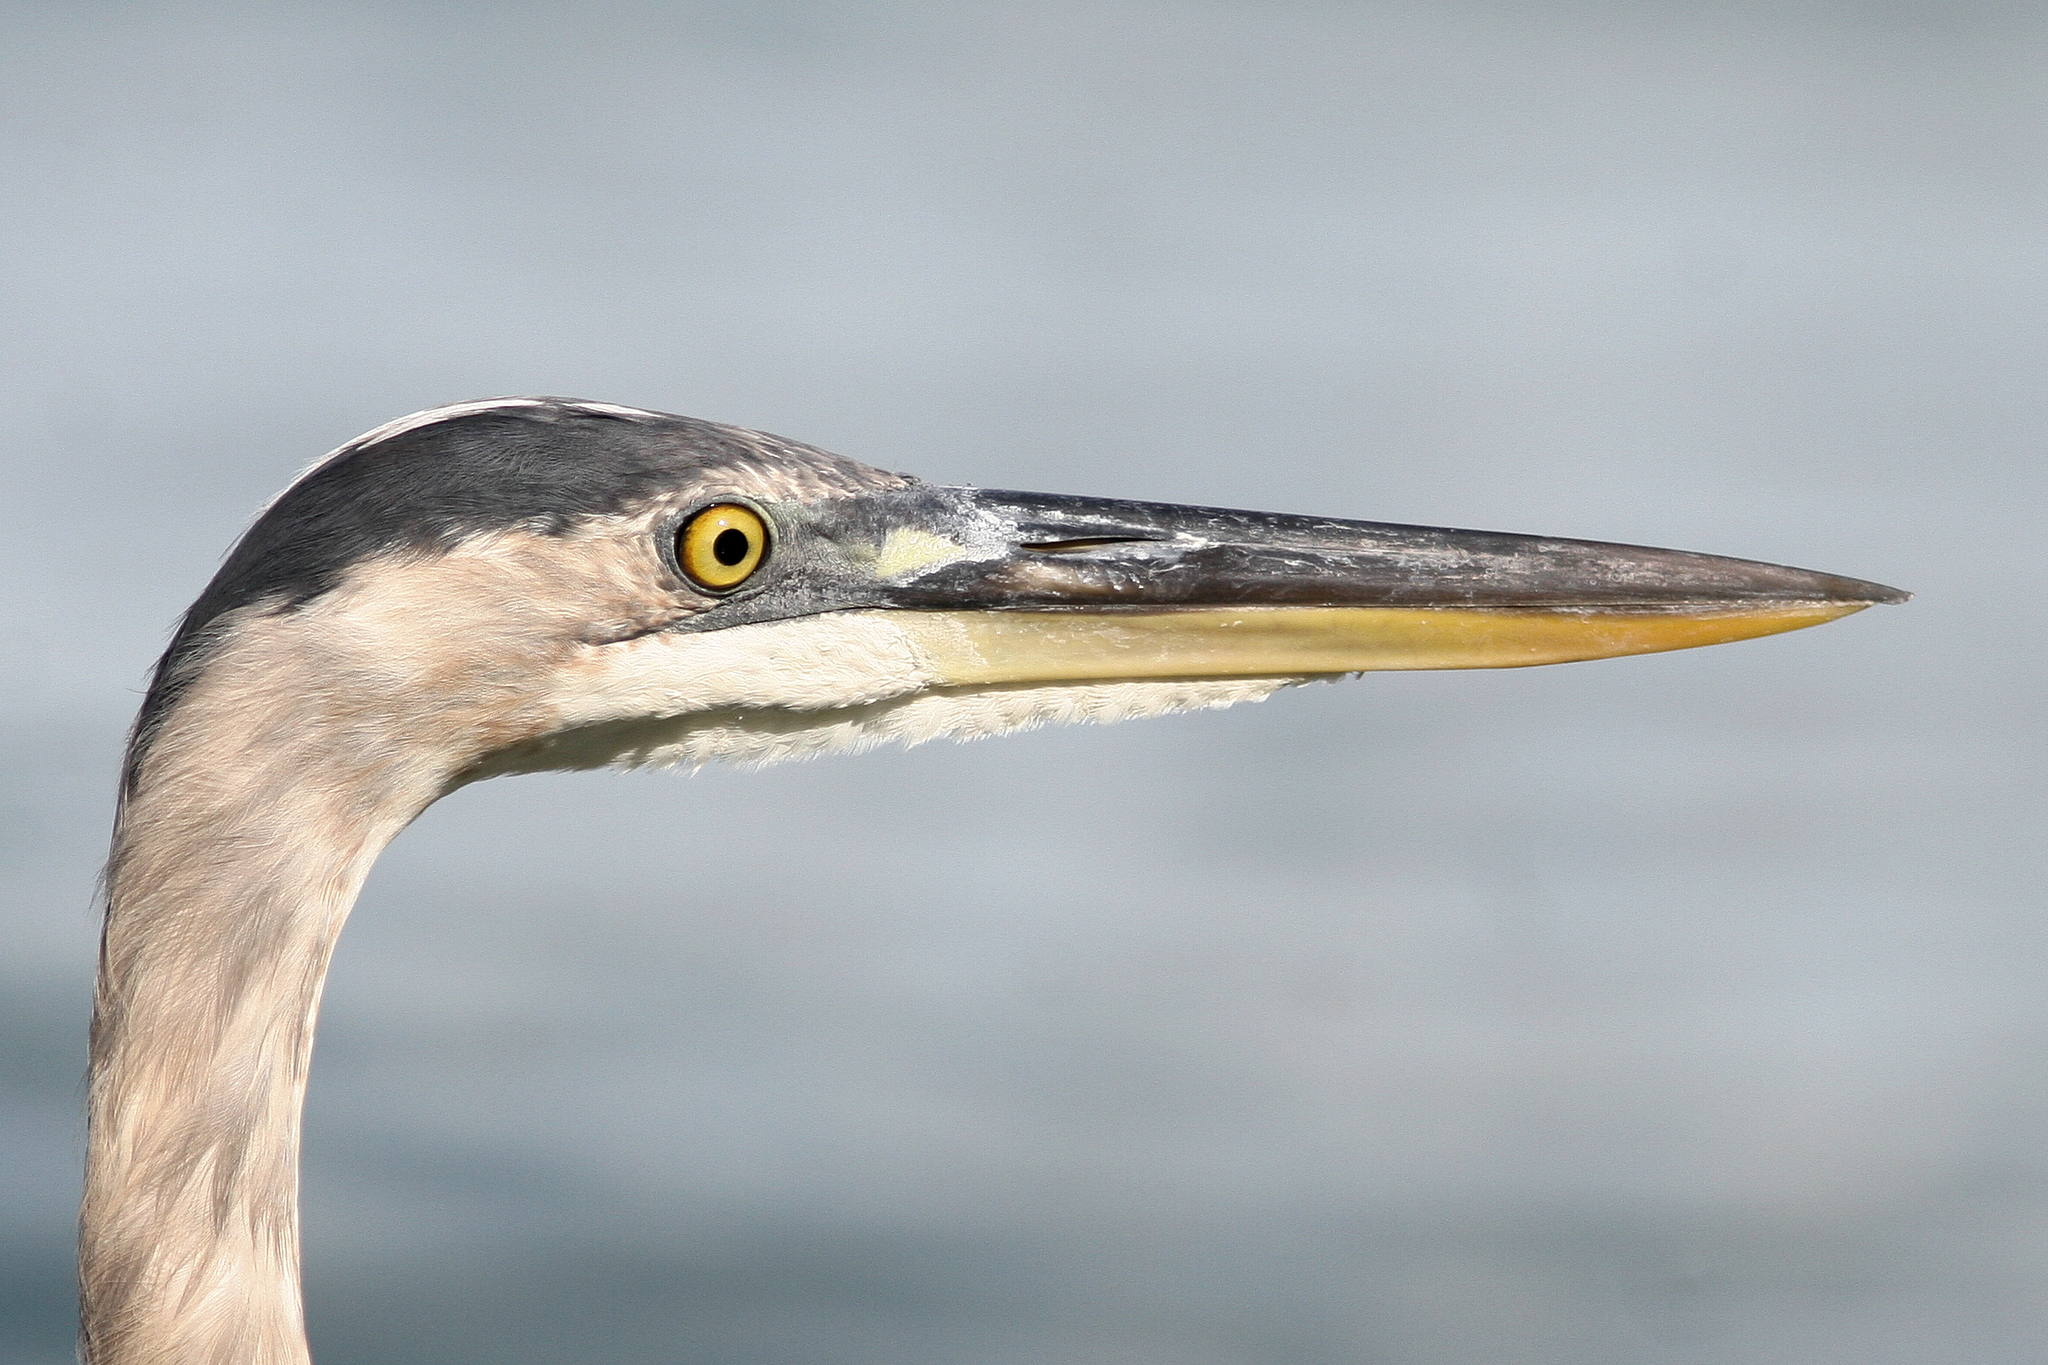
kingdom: Animalia
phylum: Chordata
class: Aves
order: Pelecaniformes
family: Ardeidae
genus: Ardea
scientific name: Ardea herodias
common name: Great blue heron
